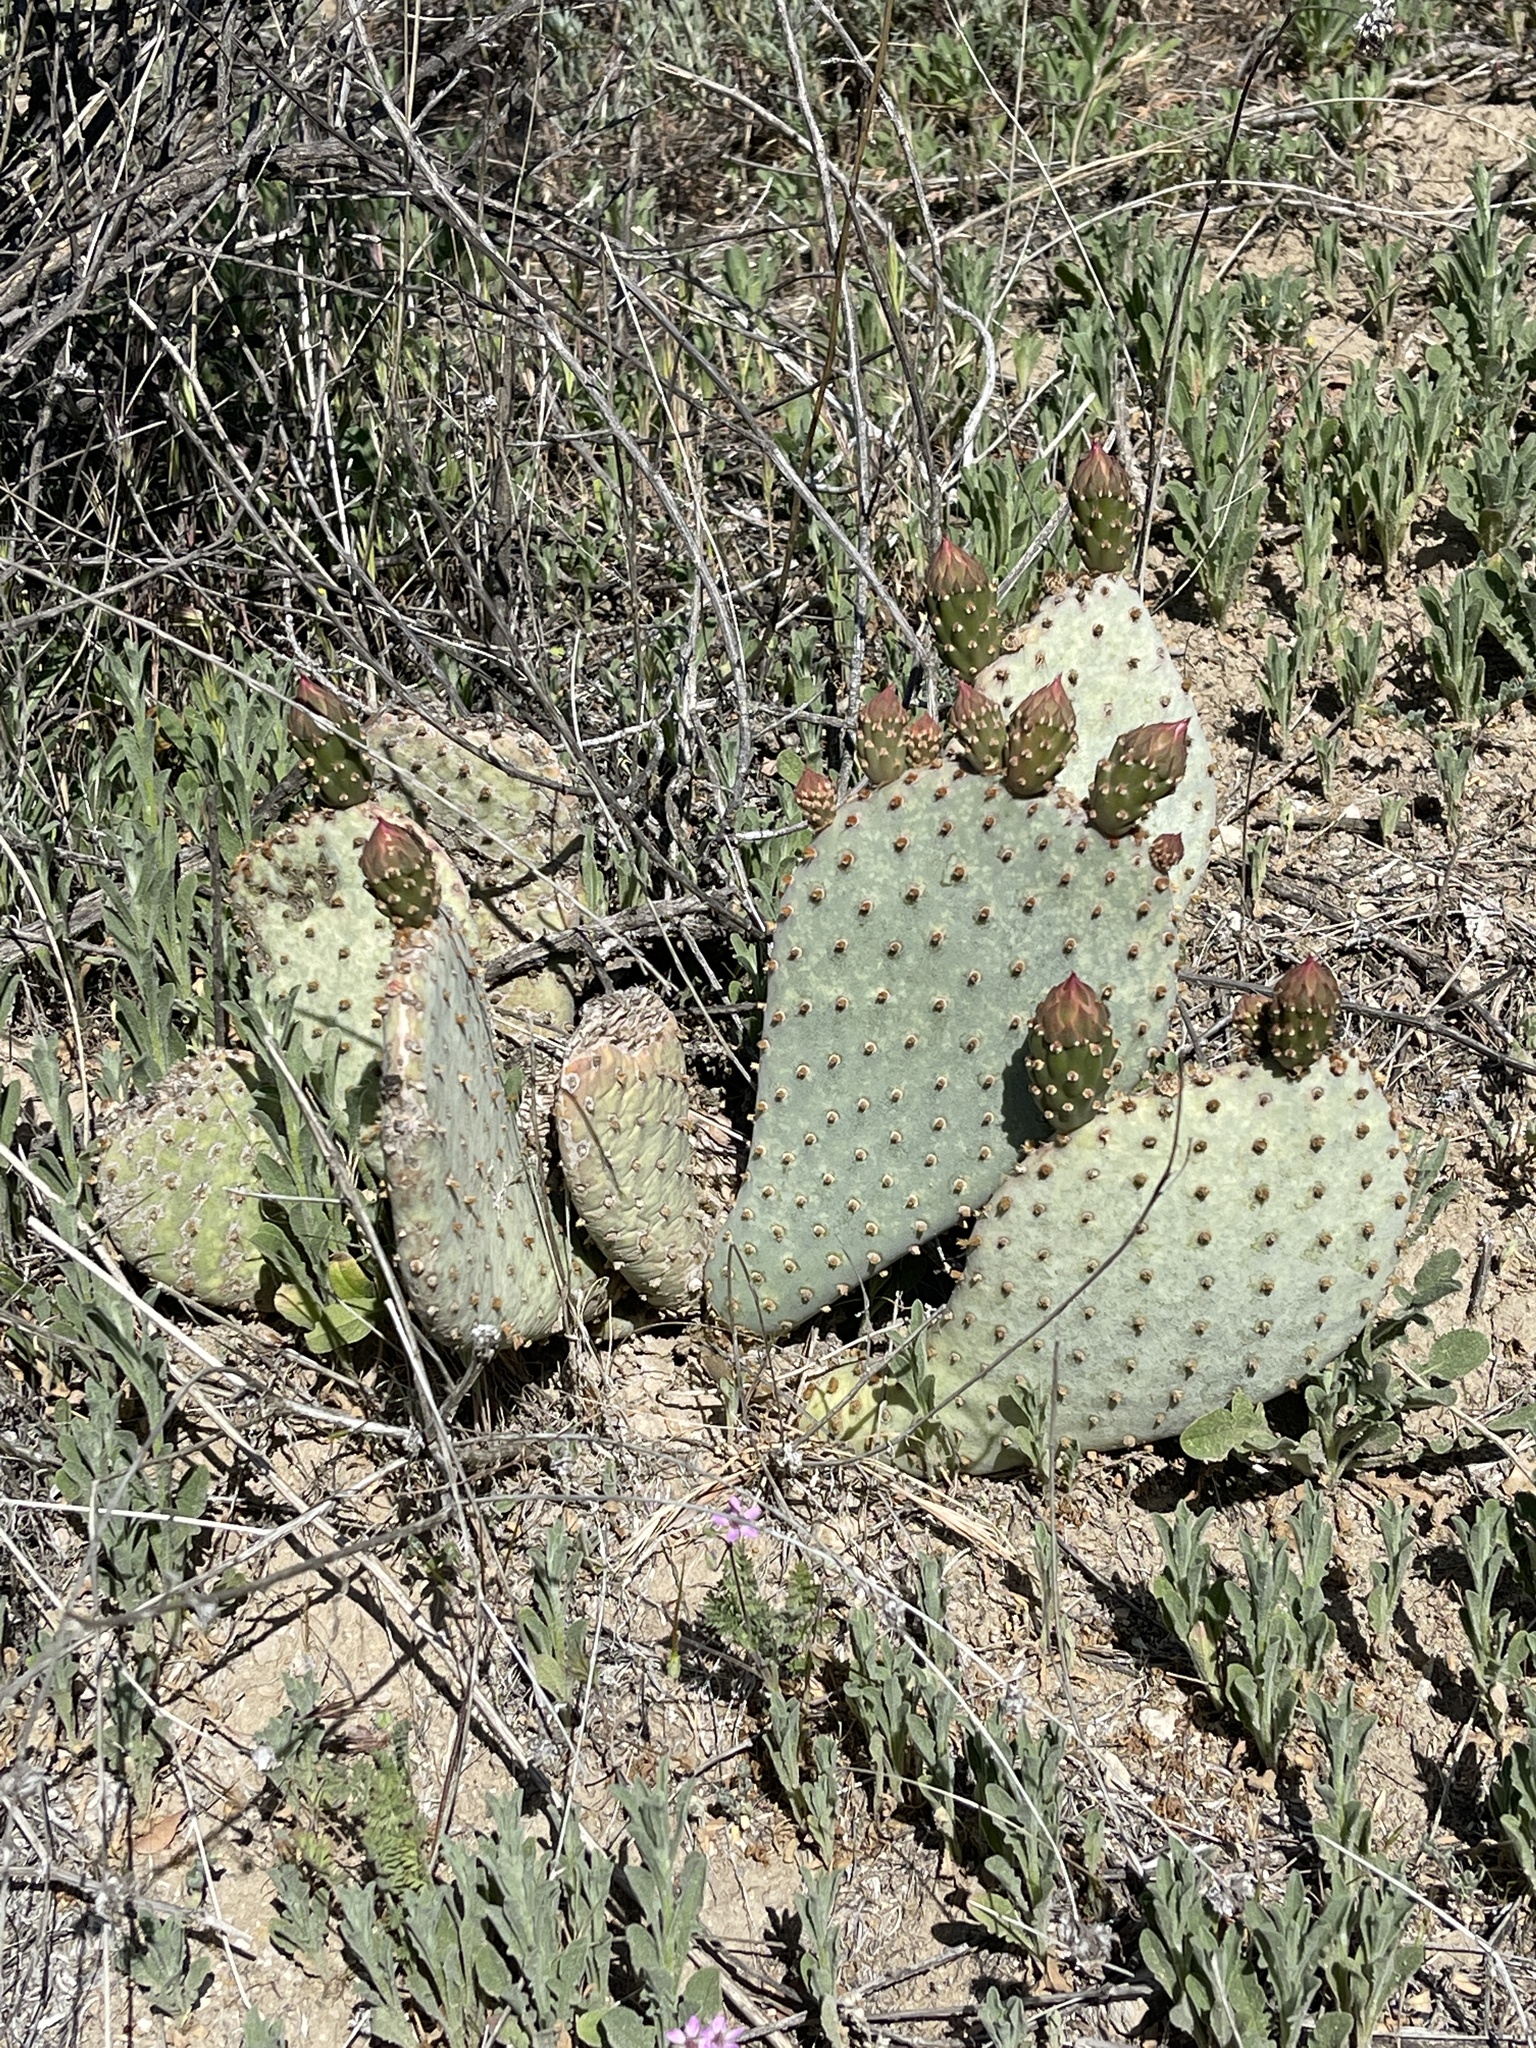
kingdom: Plantae
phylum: Tracheophyta
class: Magnoliopsida
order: Caryophyllales
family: Cactaceae
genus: Opuntia
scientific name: Opuntia basilaris
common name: Beavertail prickly-pear
